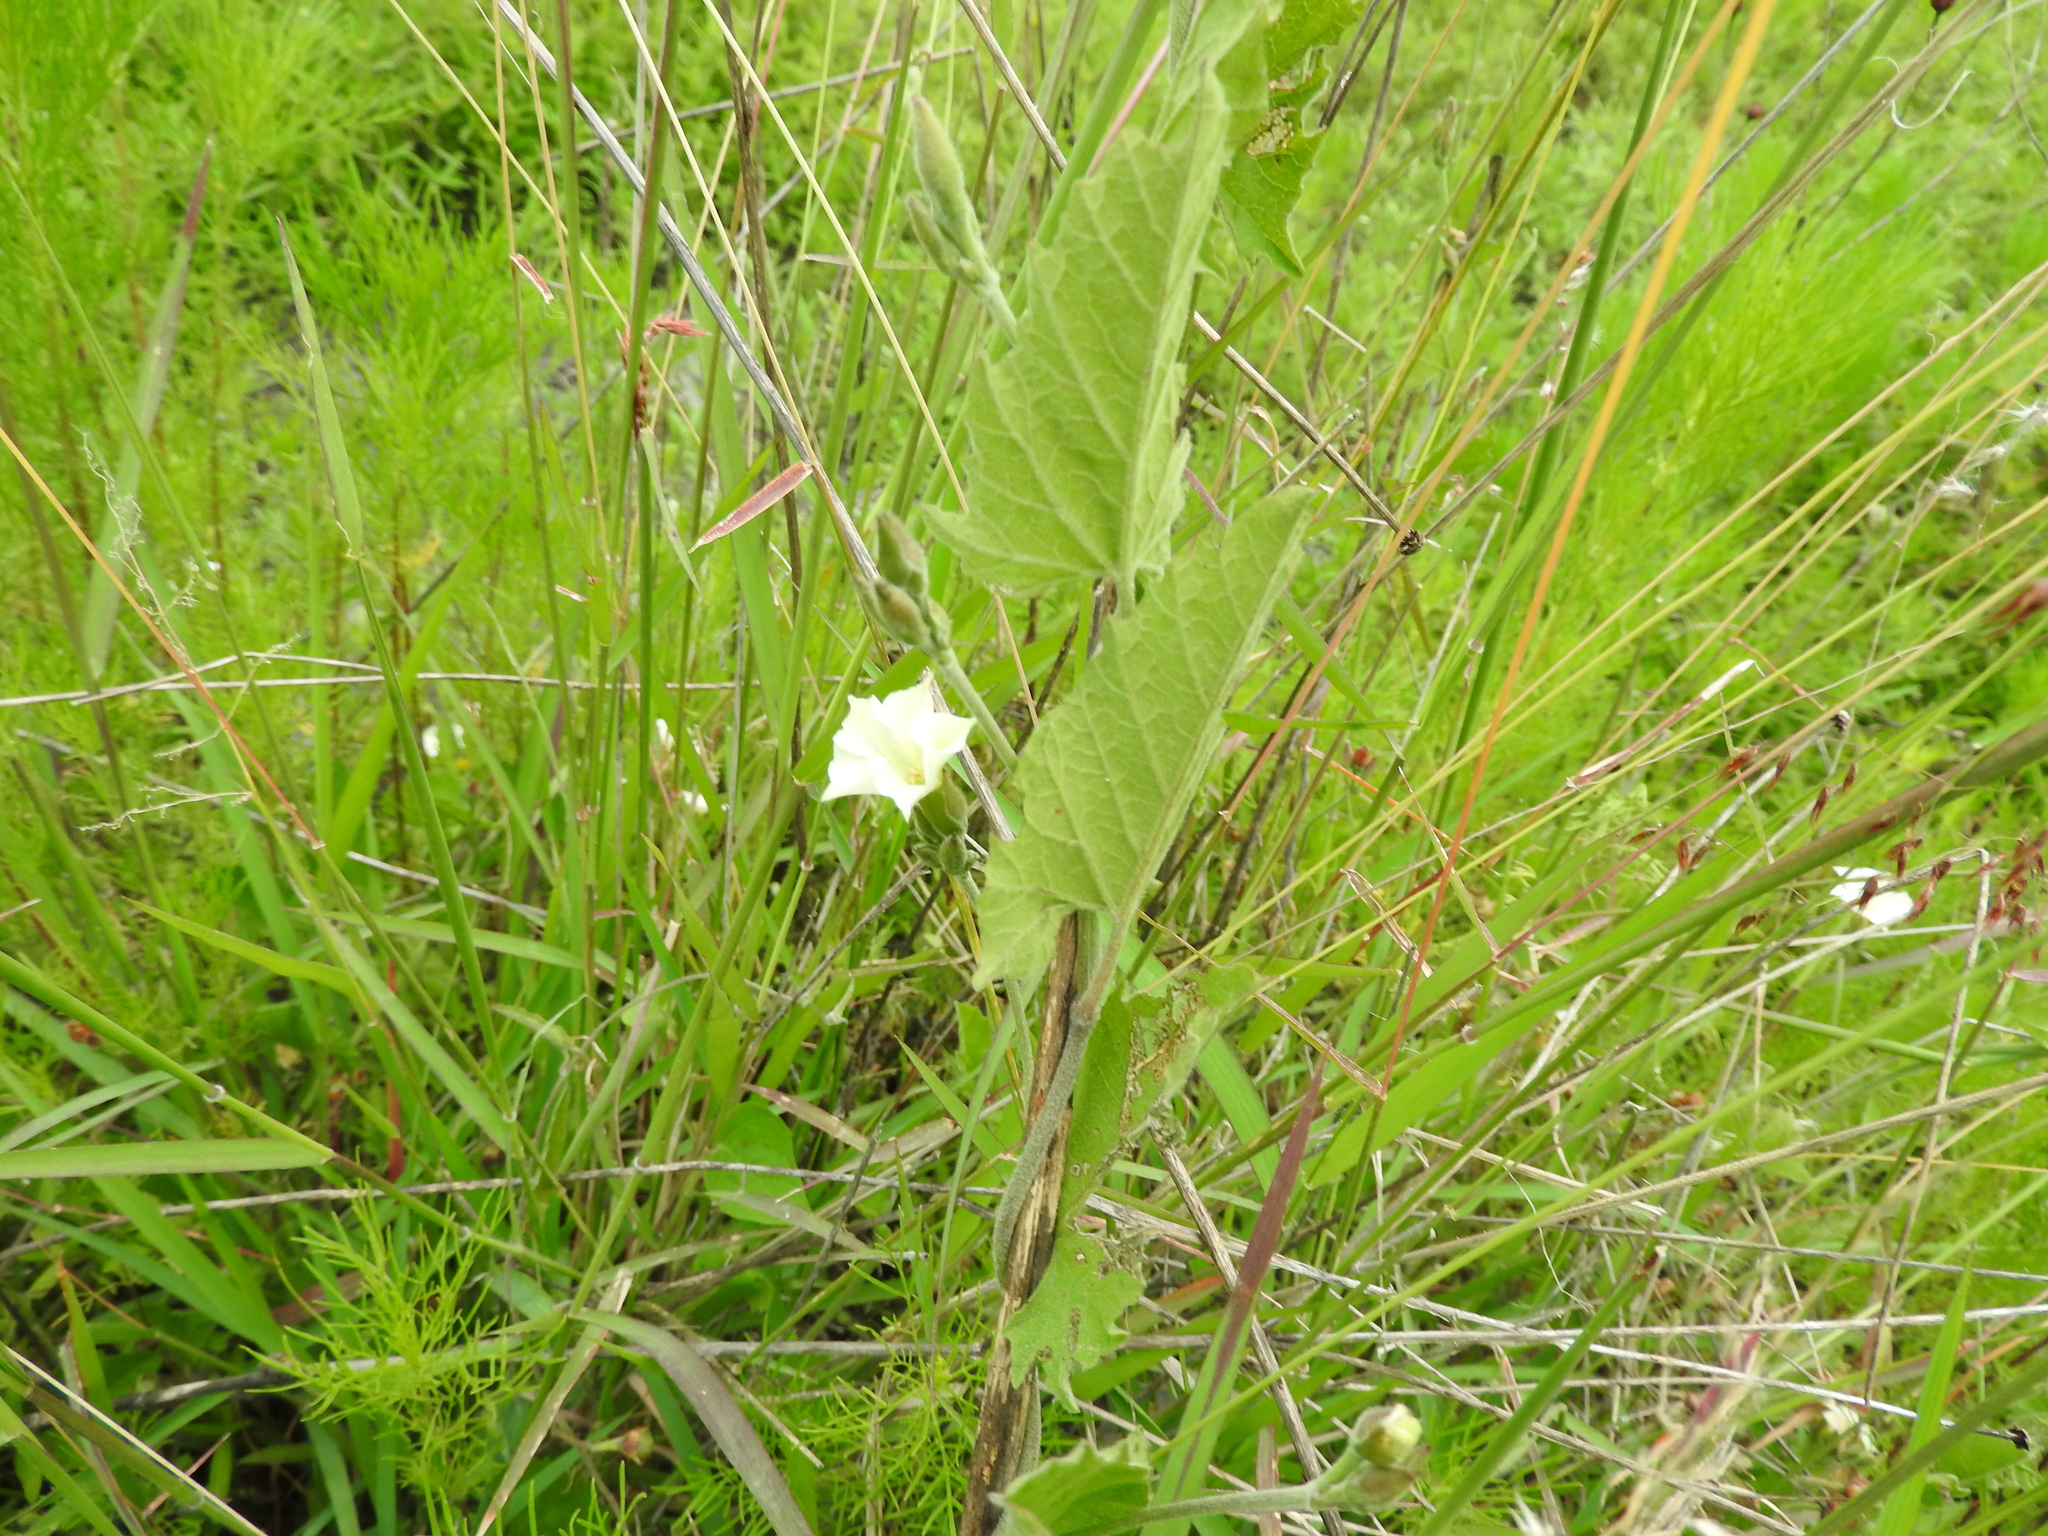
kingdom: Plantae
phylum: Tracheophyta
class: Magnoliopsida
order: Solanales
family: Convolvulaceae
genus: Convolvulus
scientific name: Convolvulus crenatifolius
